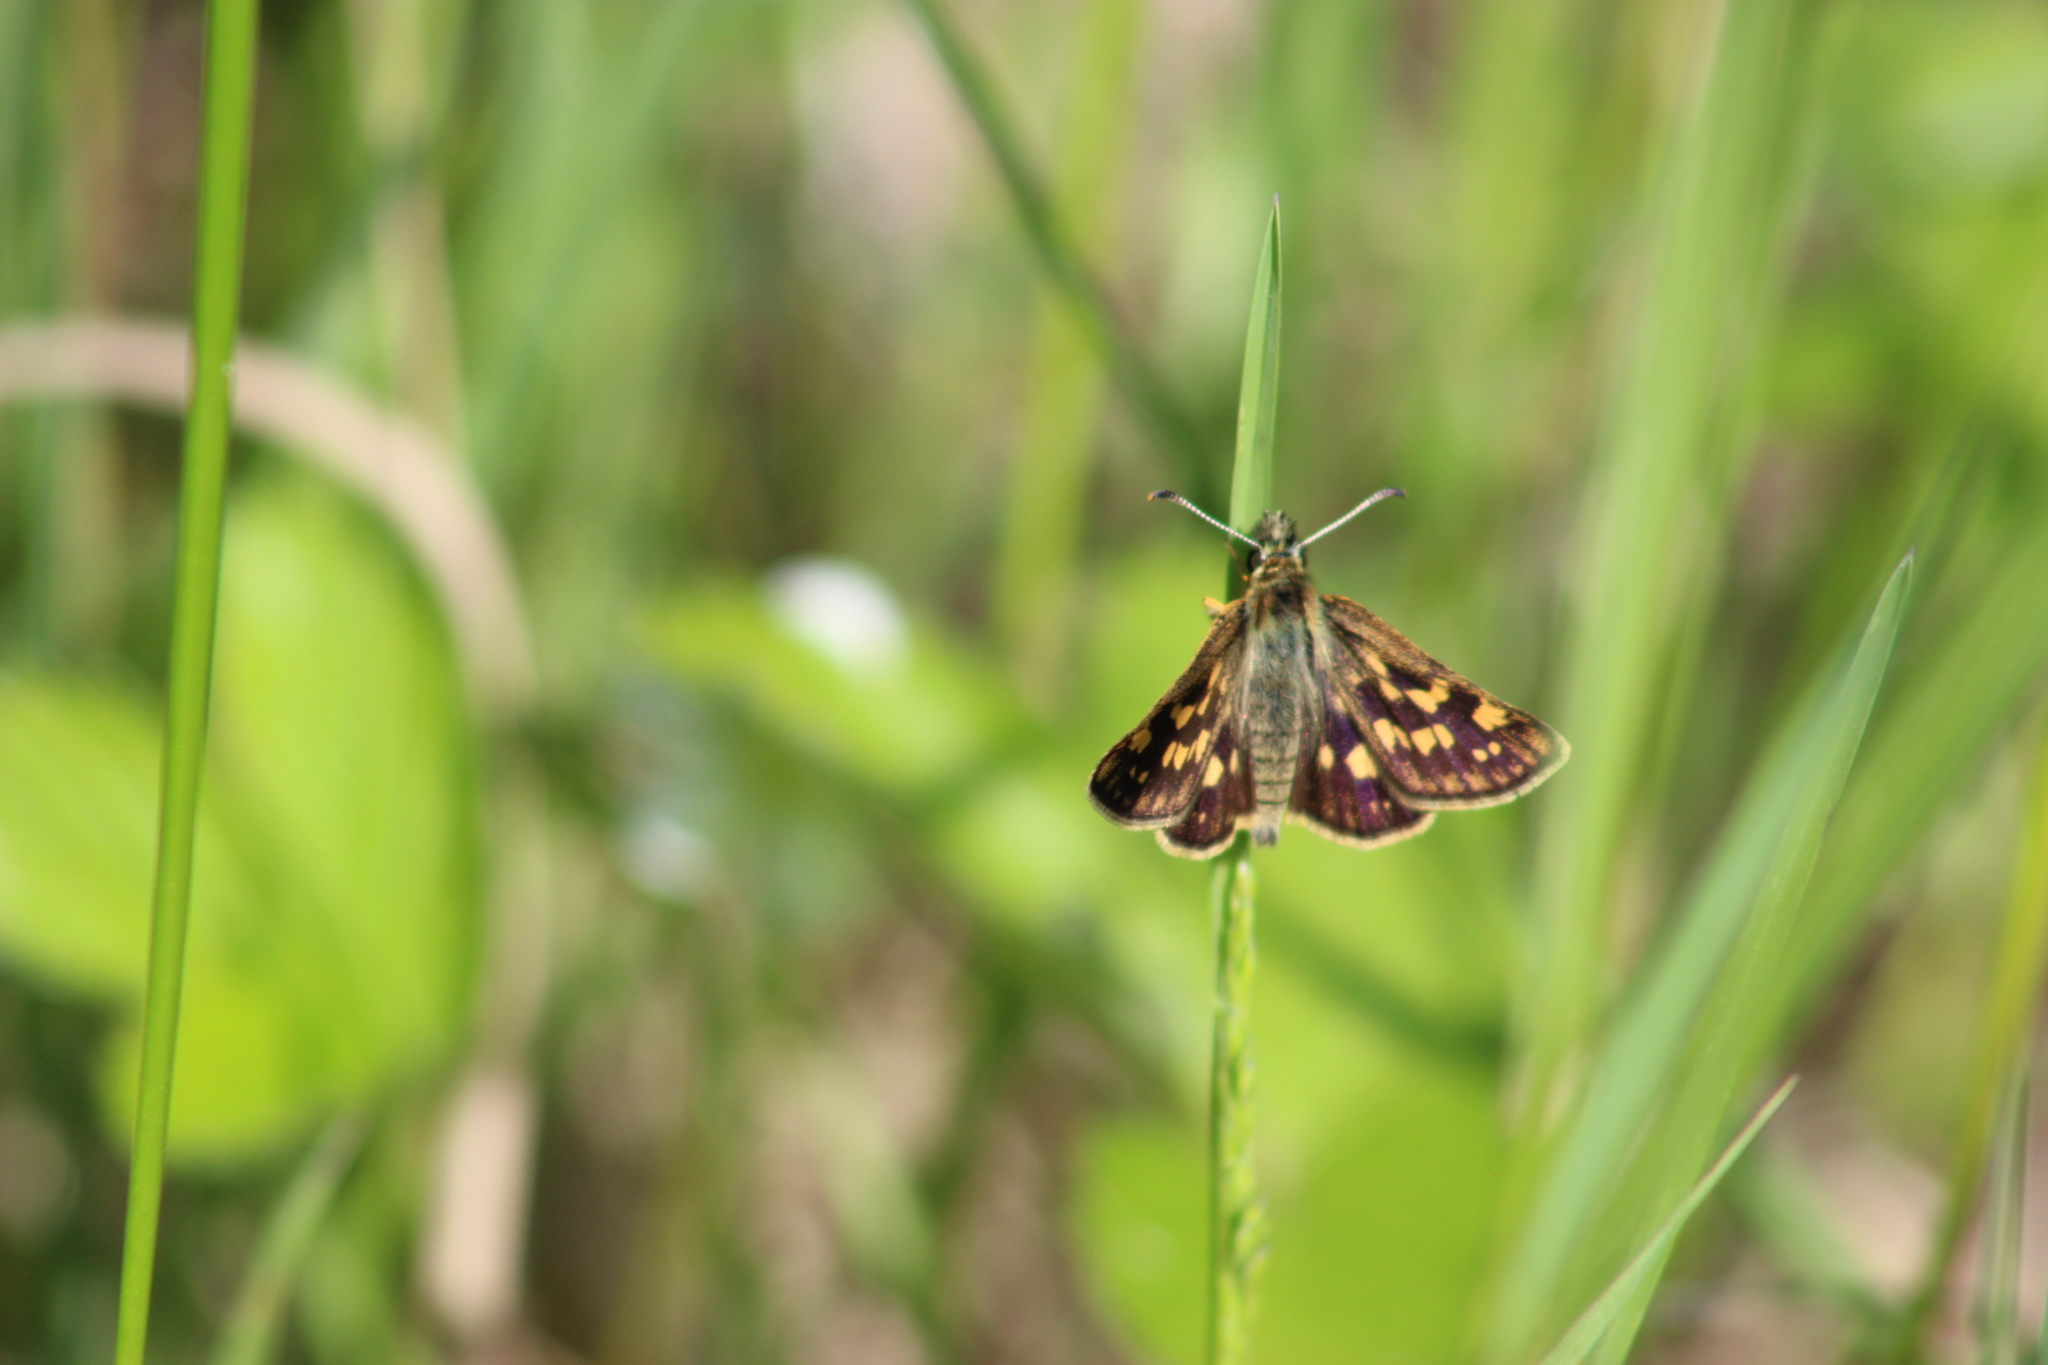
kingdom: Animalia
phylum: Arthropoda
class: Insecta
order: Lepidoptera
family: Hesperiidae
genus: Carterocephalus
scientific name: Carterocephalus palaemon
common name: Chequered skipper
